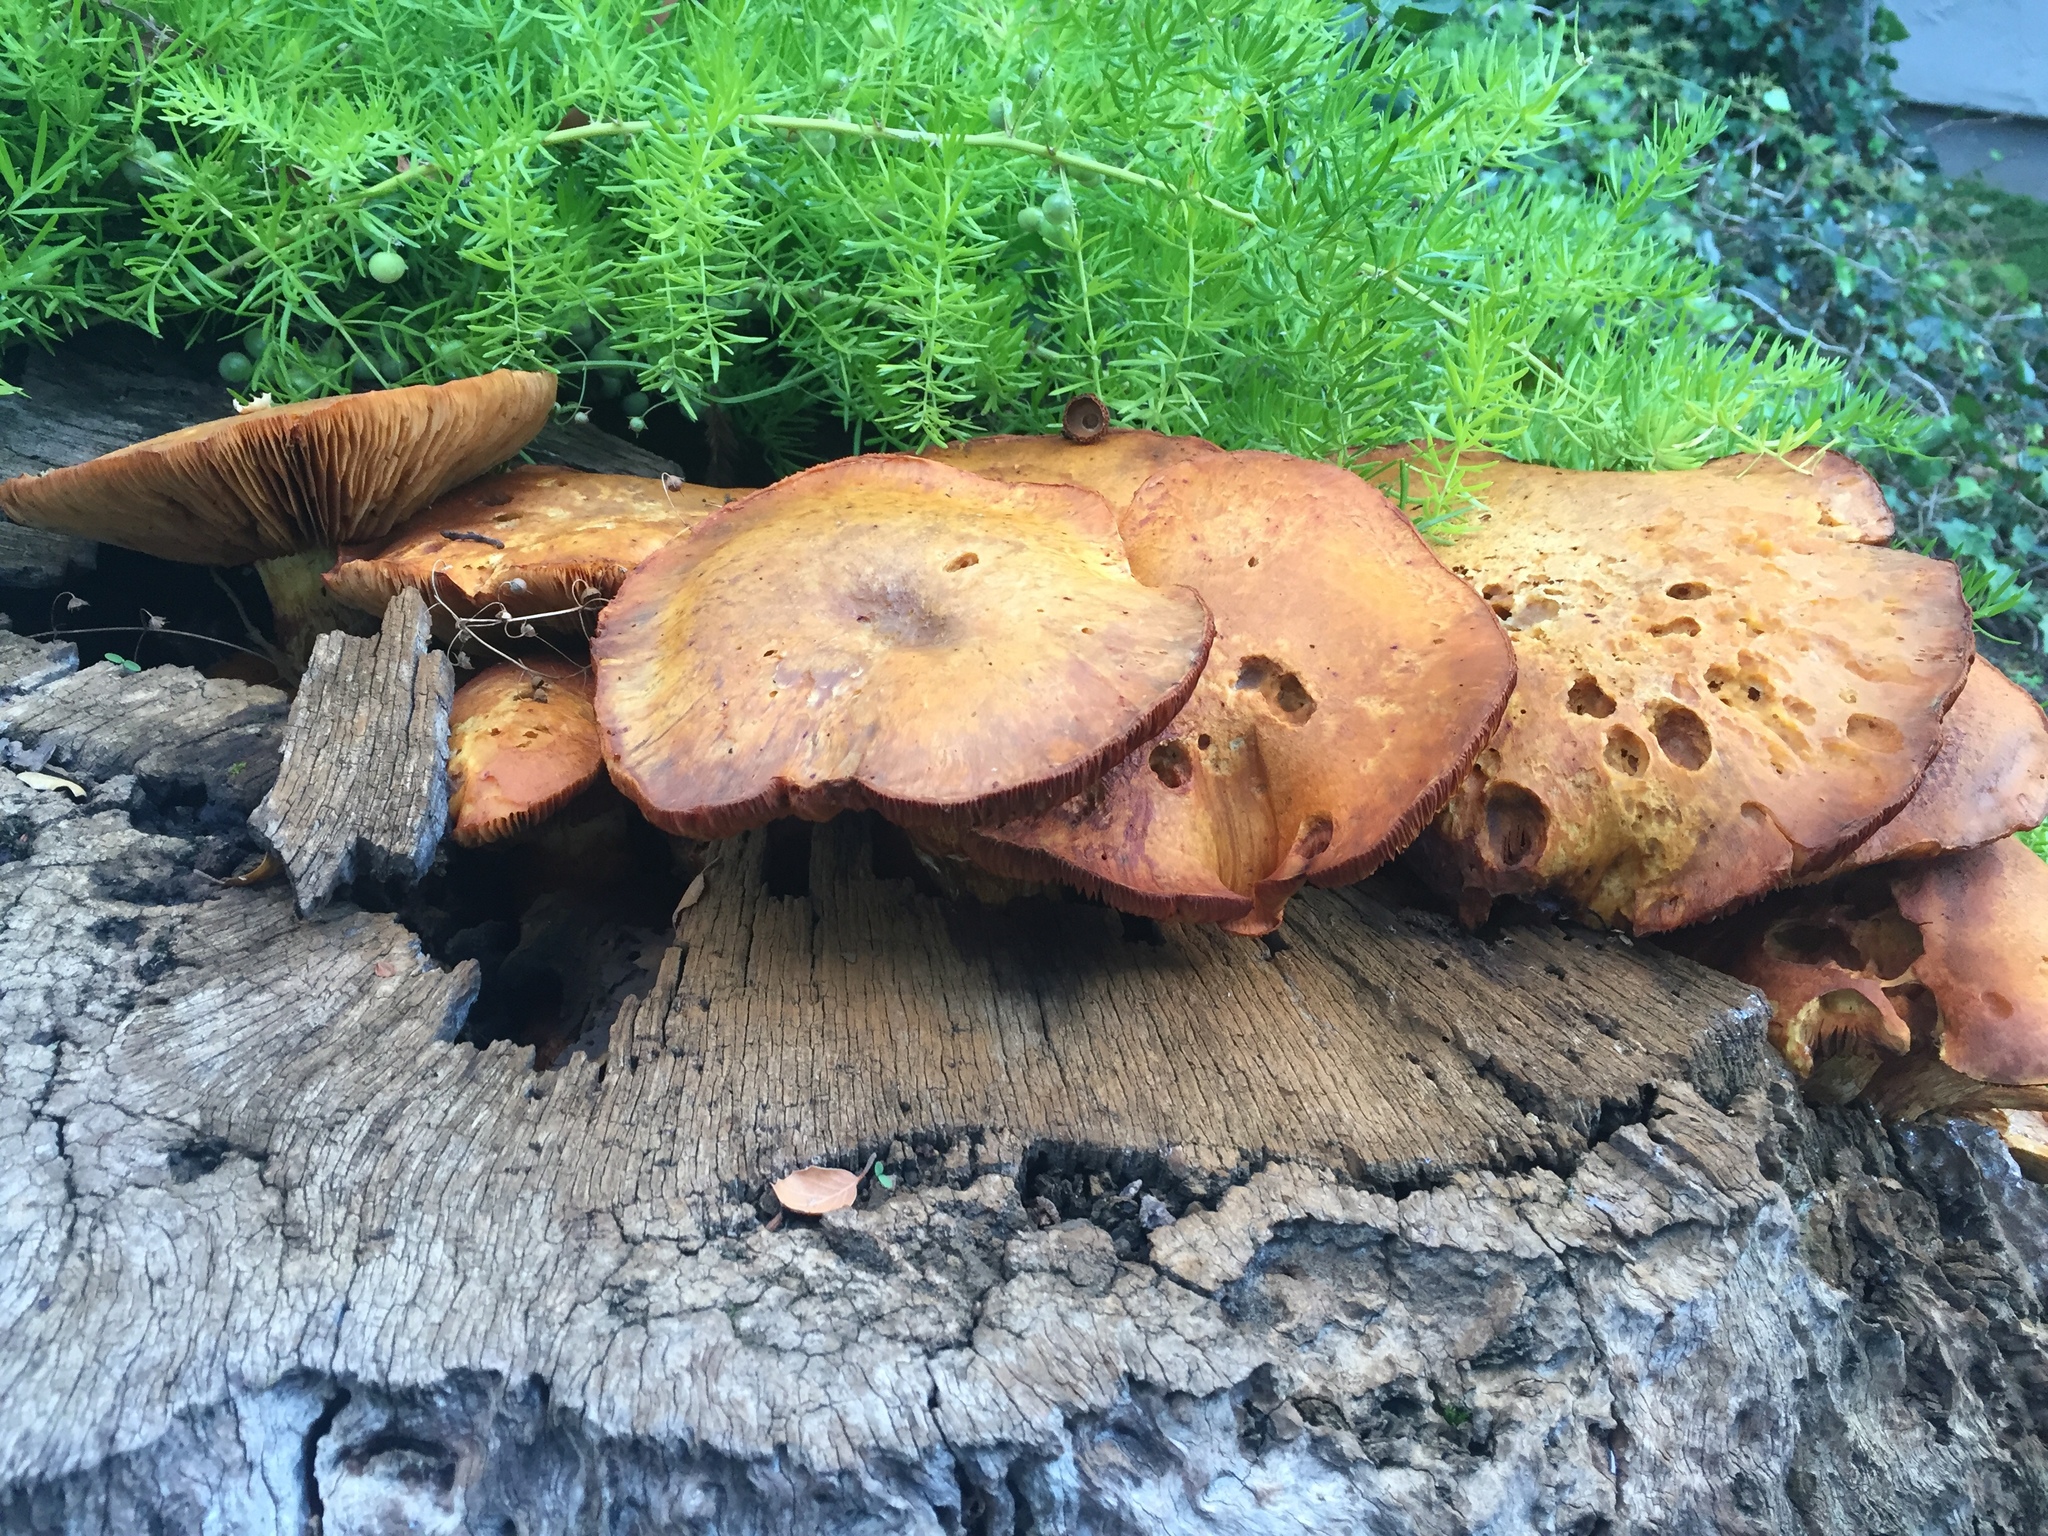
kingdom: Fungi
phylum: Basidiomycota
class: Agaricomycetes
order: Agaricales
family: Hymenogastraceae
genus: Gymnopilus
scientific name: Gymnopilus ventricosus
